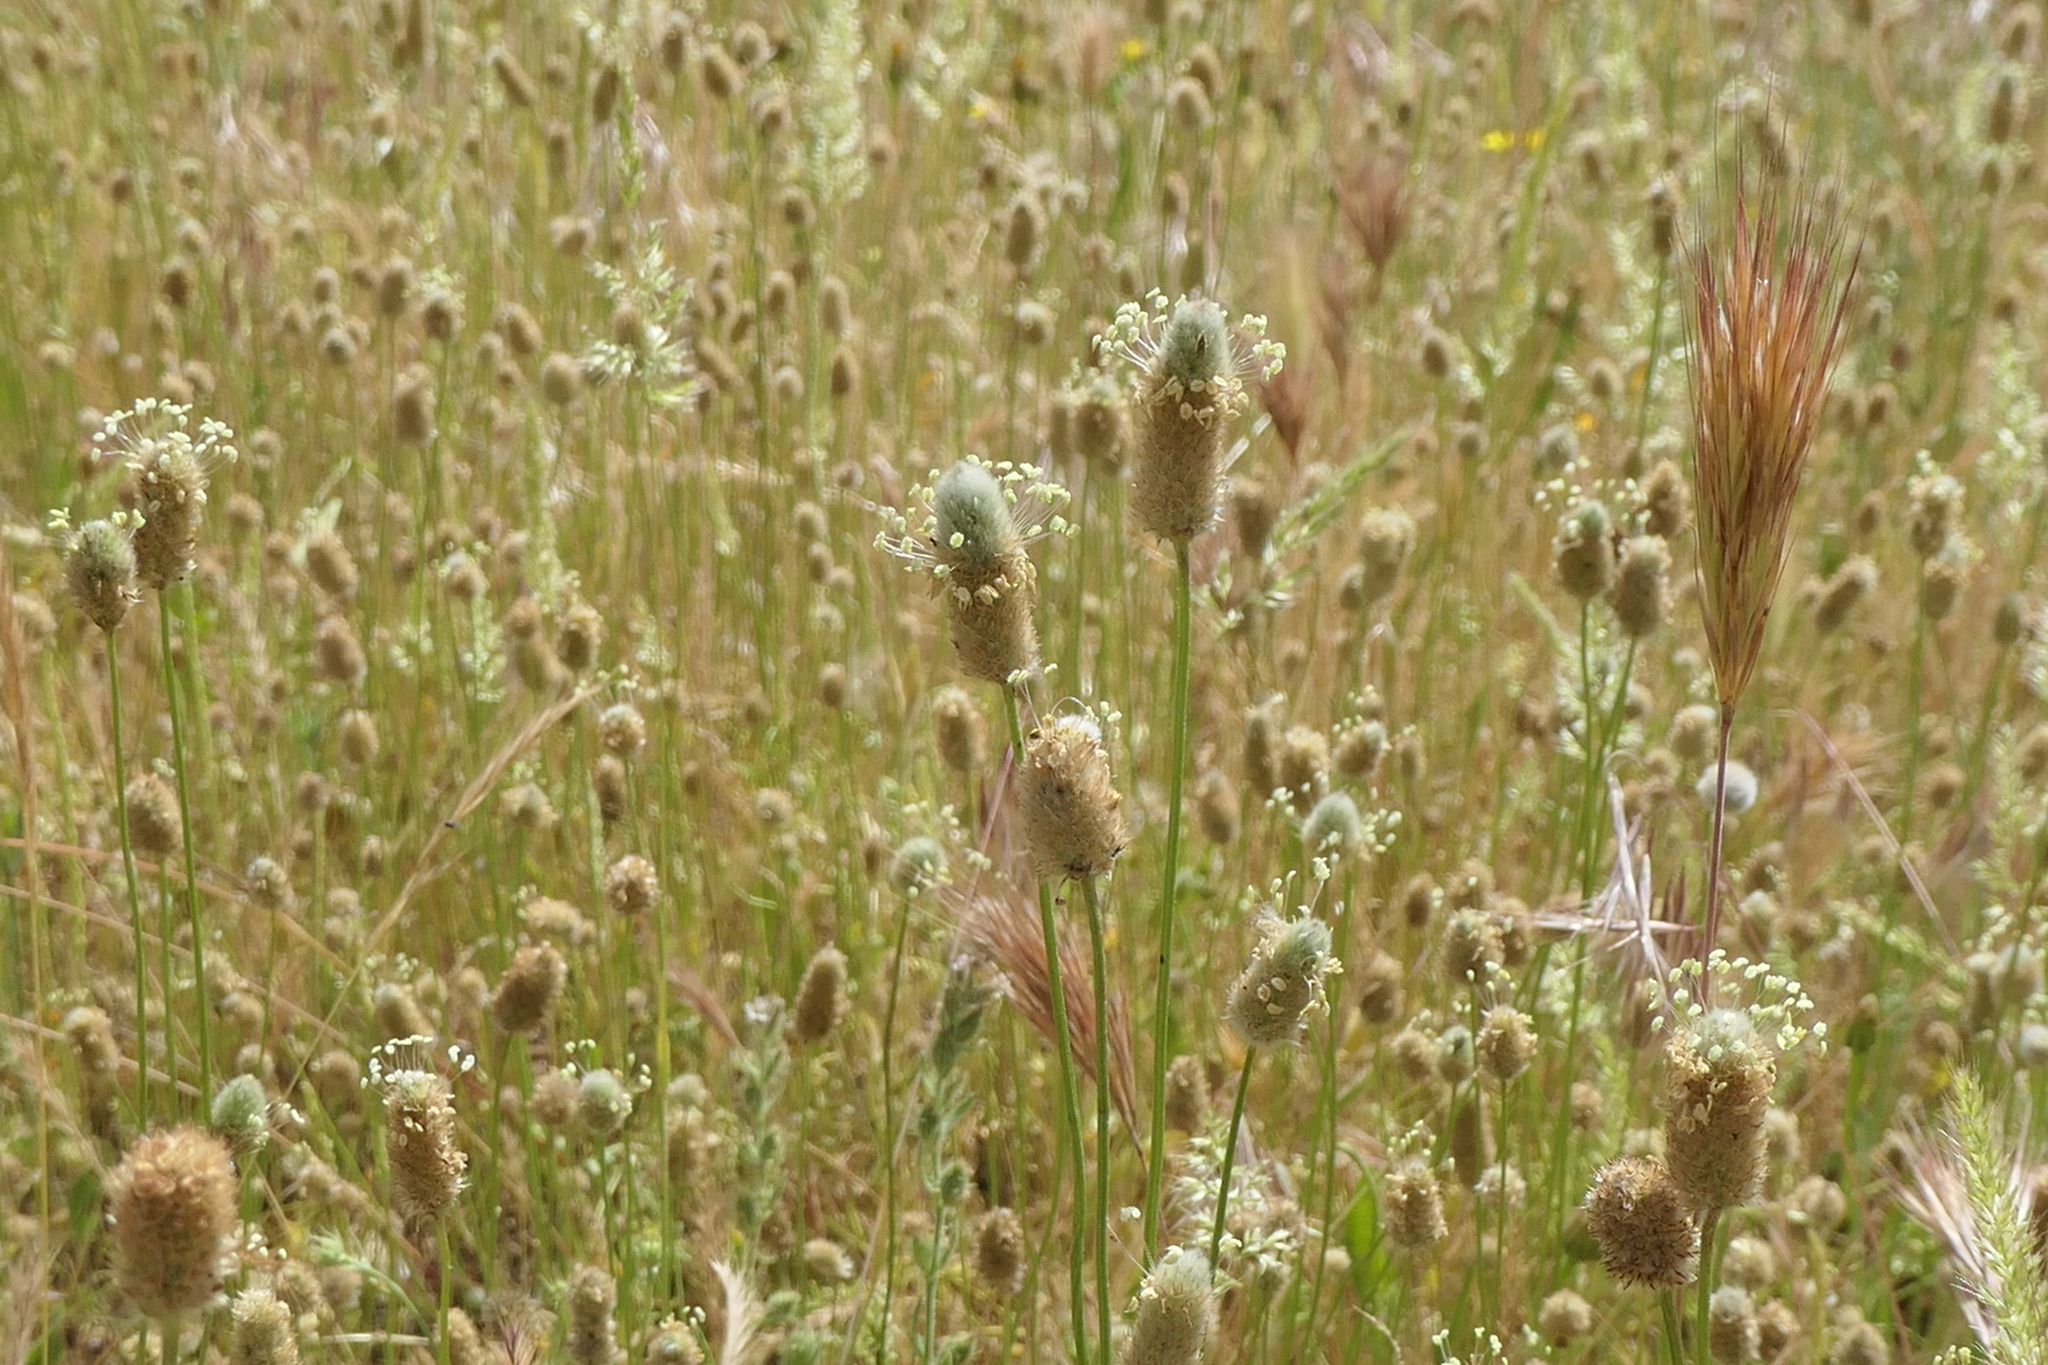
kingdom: Plantae
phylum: Tracheophyta
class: Magnoliopsida
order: Lamiales
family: Plantaginaceae
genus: Plantago
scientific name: Plantago lagopus
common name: Hare-foot plantain
